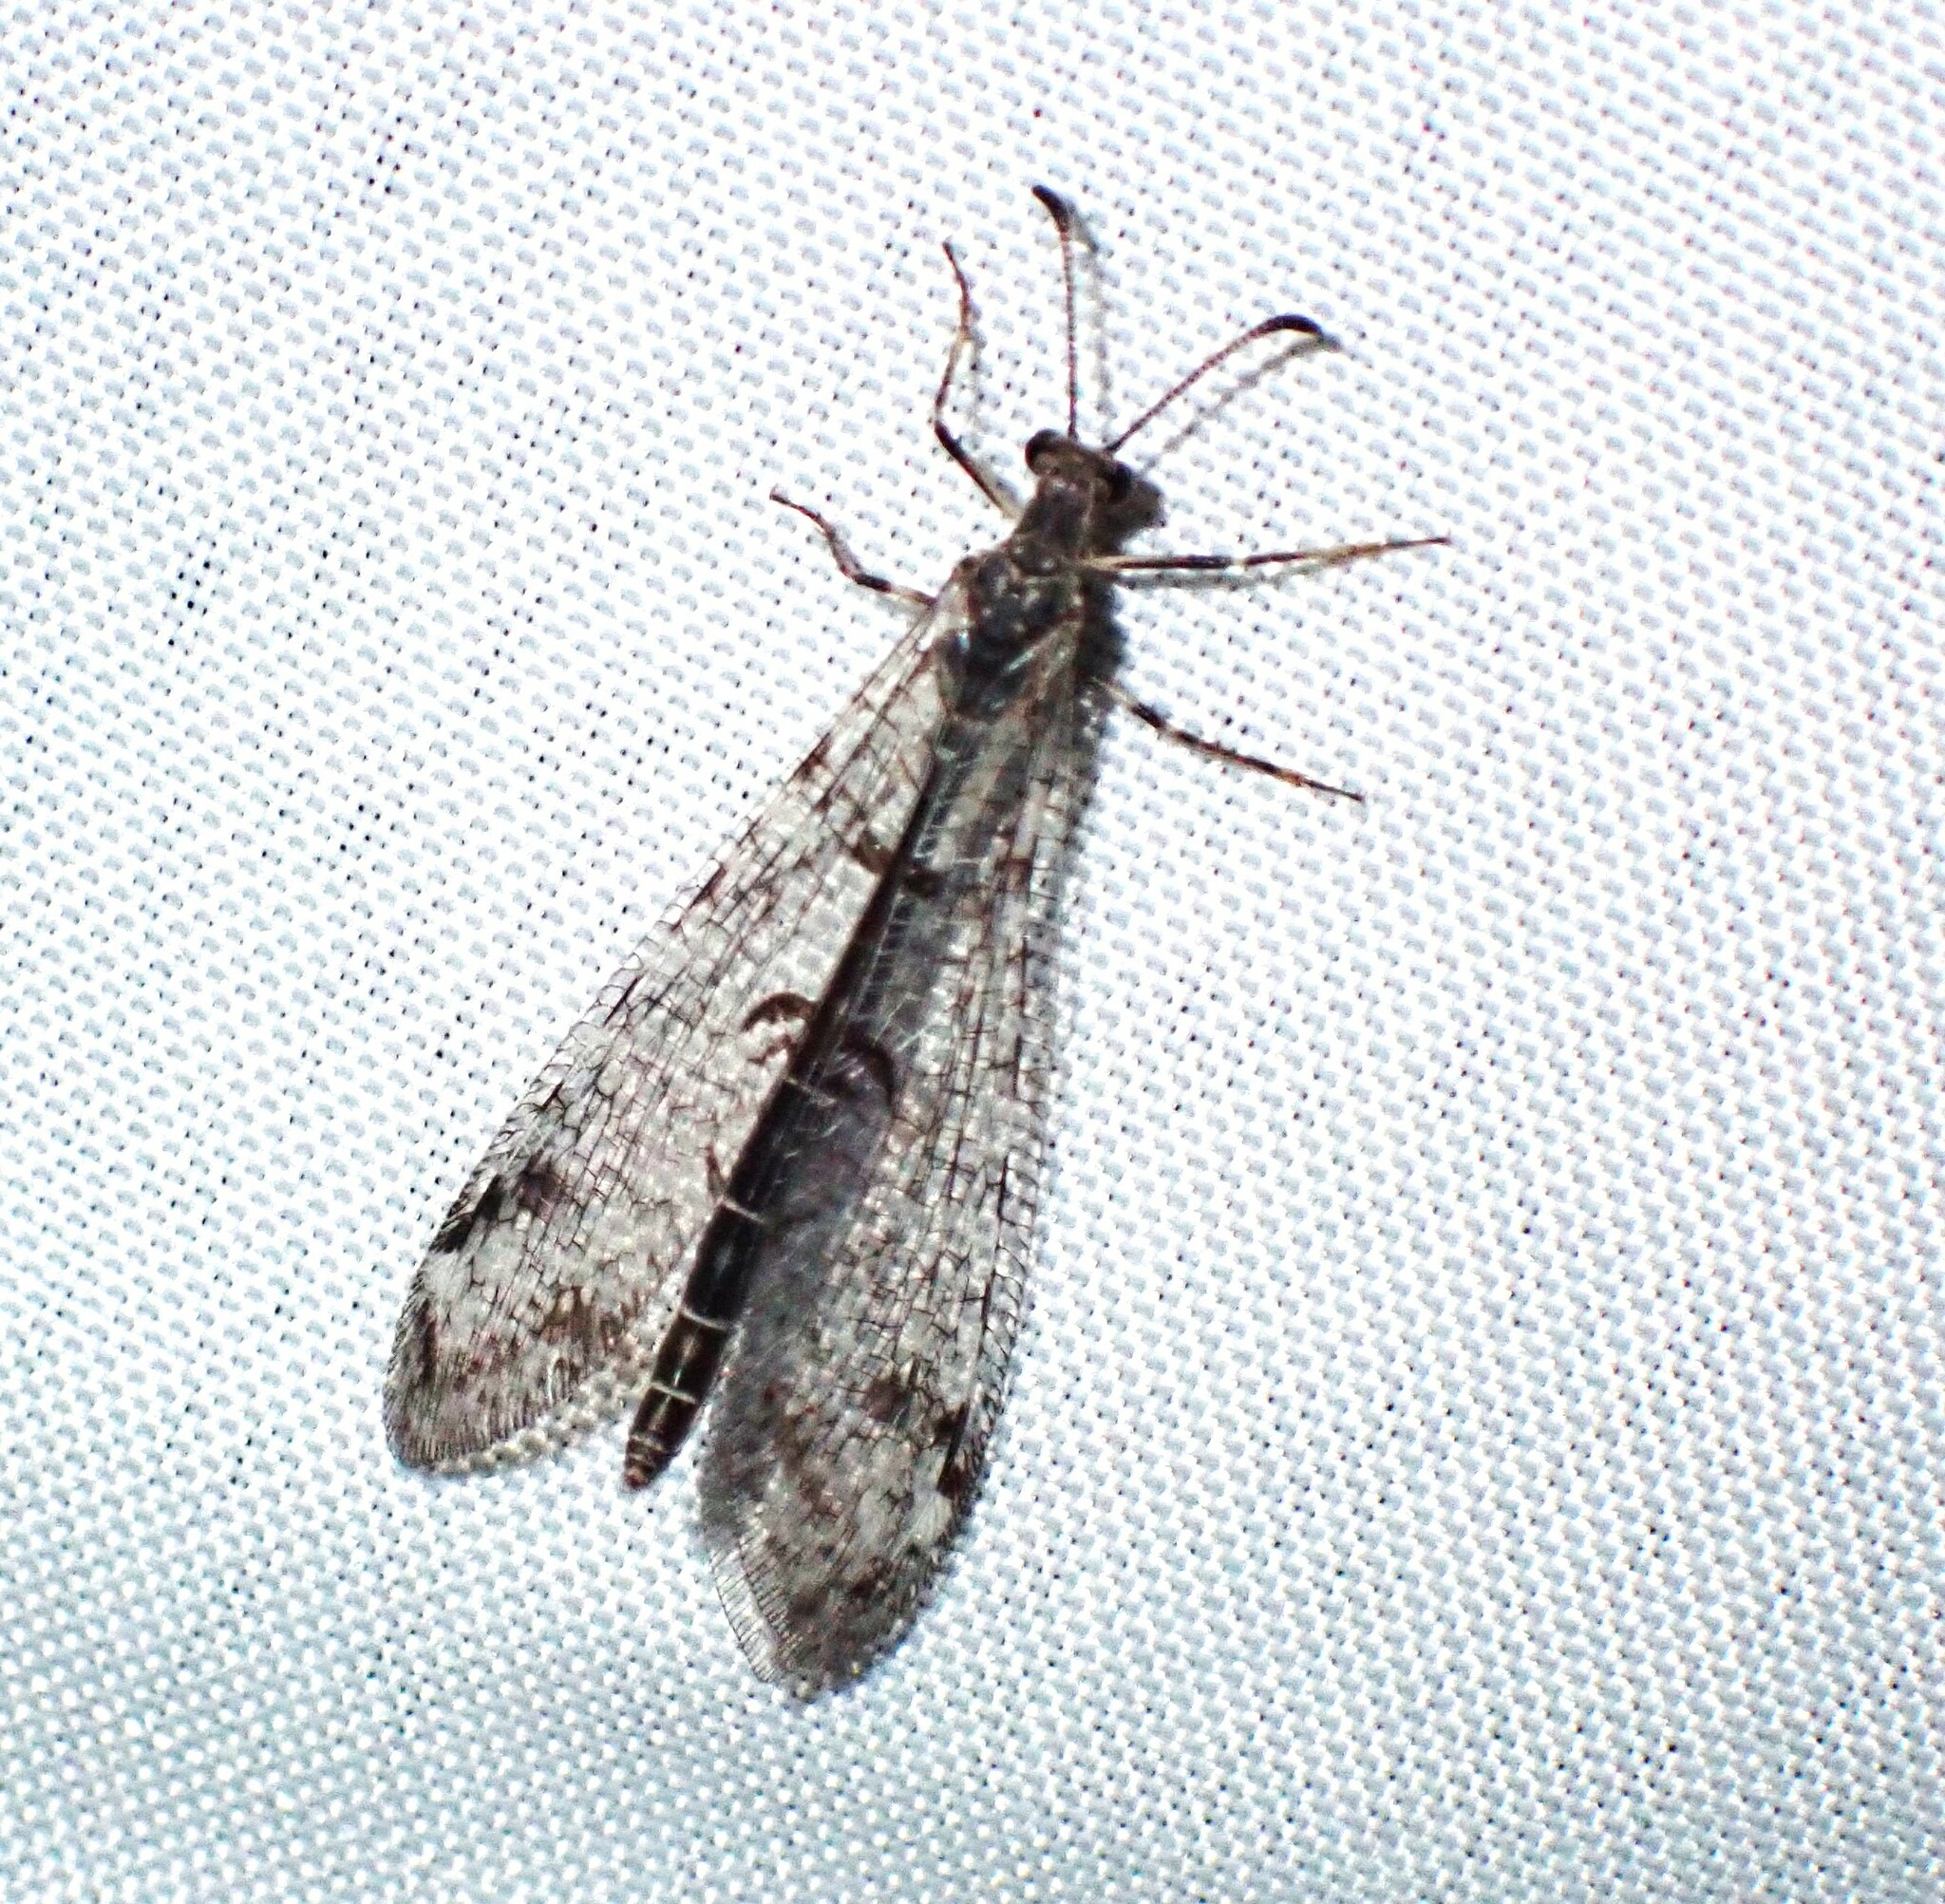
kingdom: Animalia
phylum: Arthropoda
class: Insecta
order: Neuroptera
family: Myrmeleontidae
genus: Dendroleon
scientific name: Dendroleon speciosus
